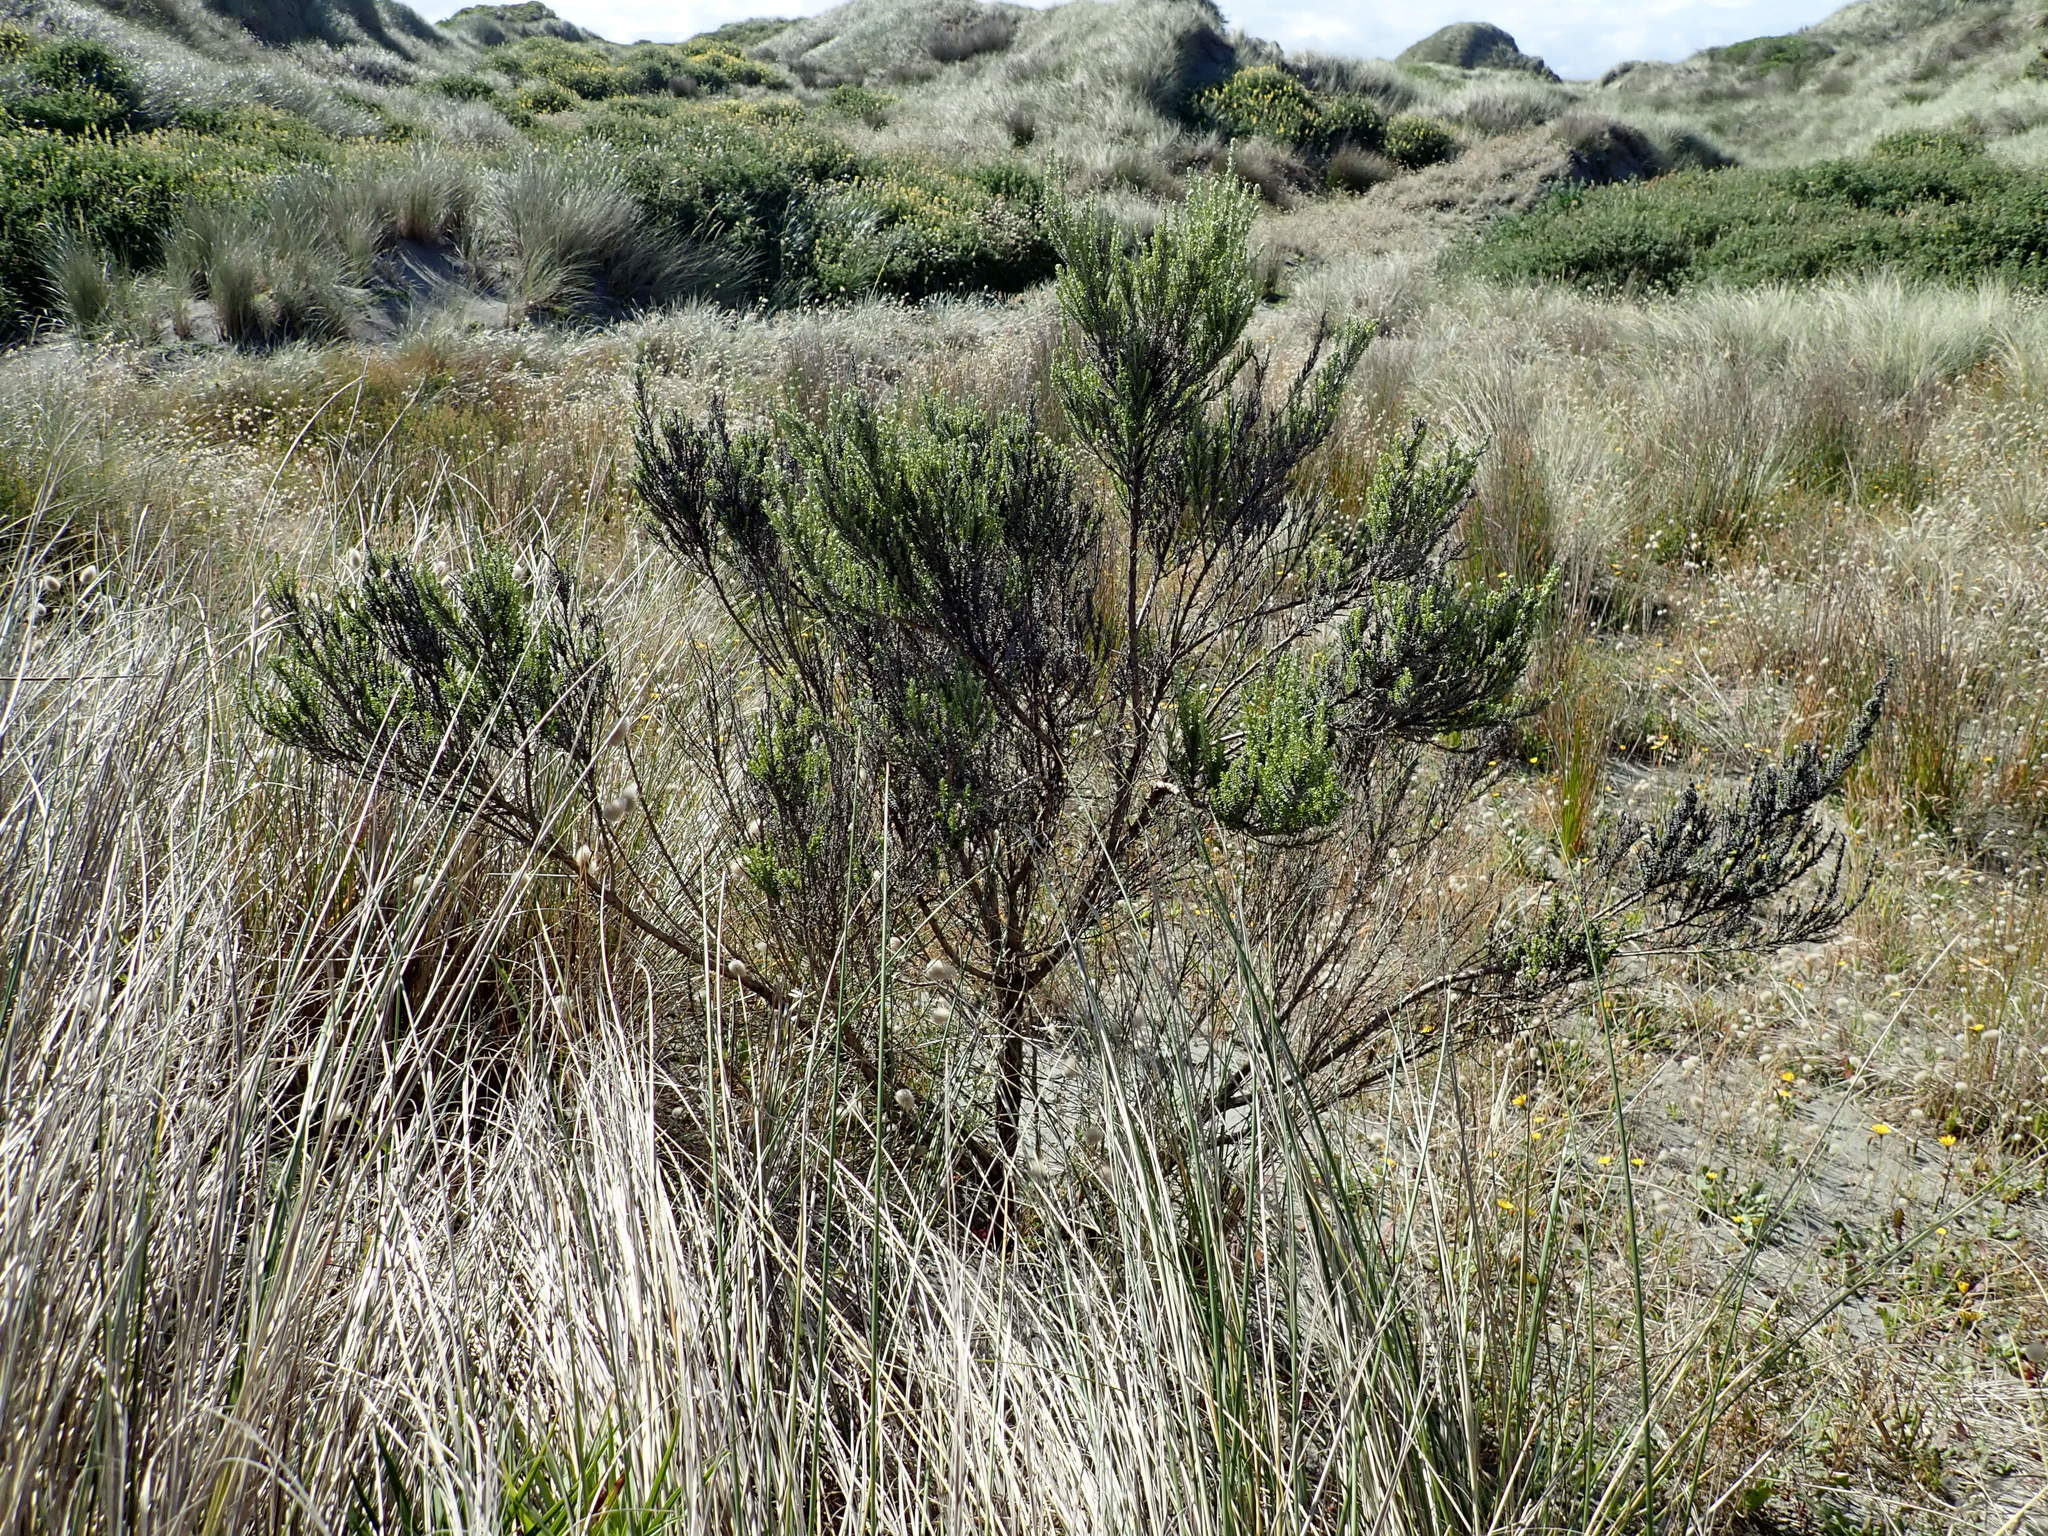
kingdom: Plantae
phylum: Tracheophyta
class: Magnoliopsida
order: Asterales
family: Asteraceae
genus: Ozothamnus
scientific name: Ozothamnus leptophyllus
